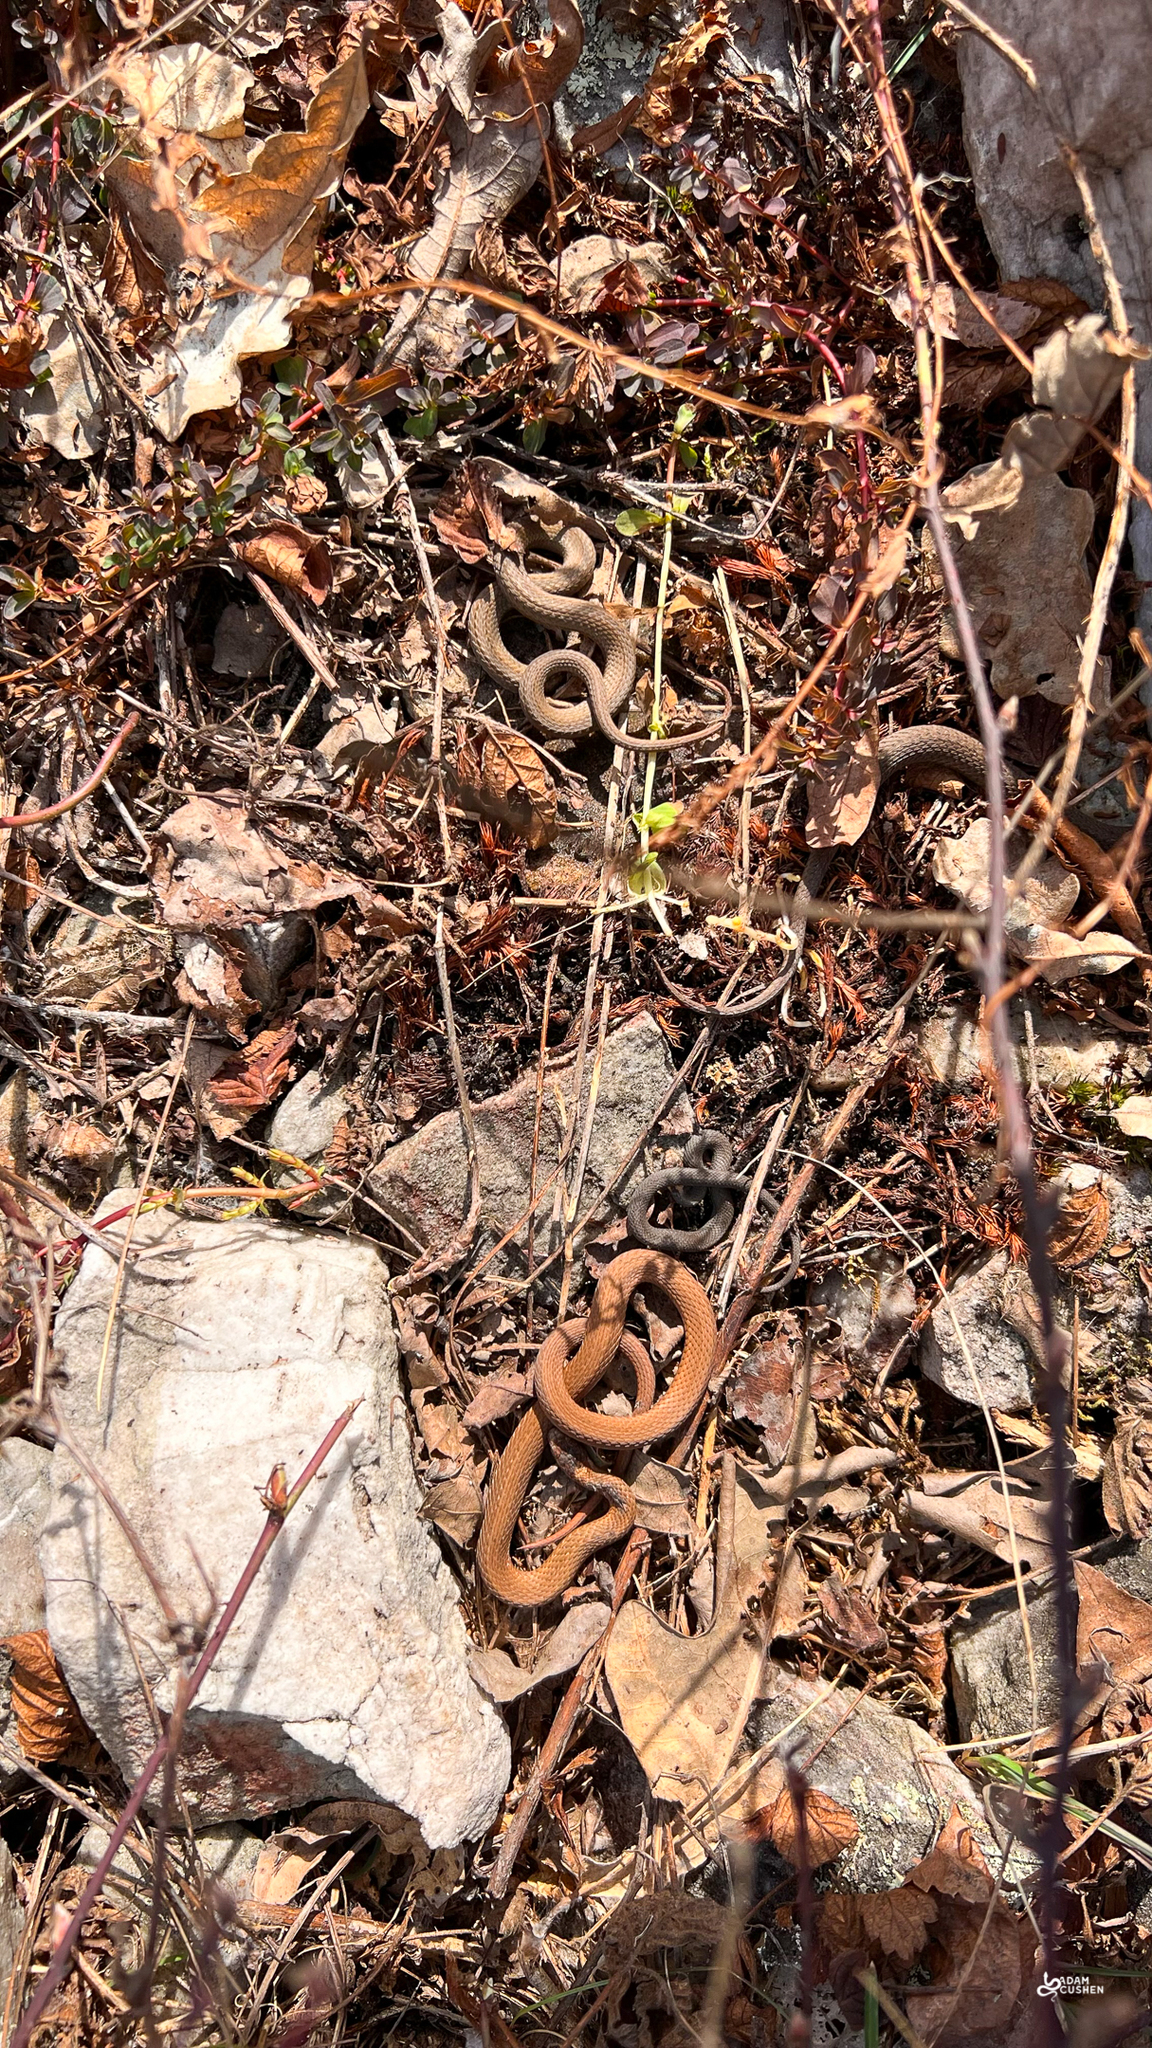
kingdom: Animalia
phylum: Chordata
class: Squamata
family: Colubridae
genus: Storeria
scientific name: Storeria occipitomaculata
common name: Redbelly snake
